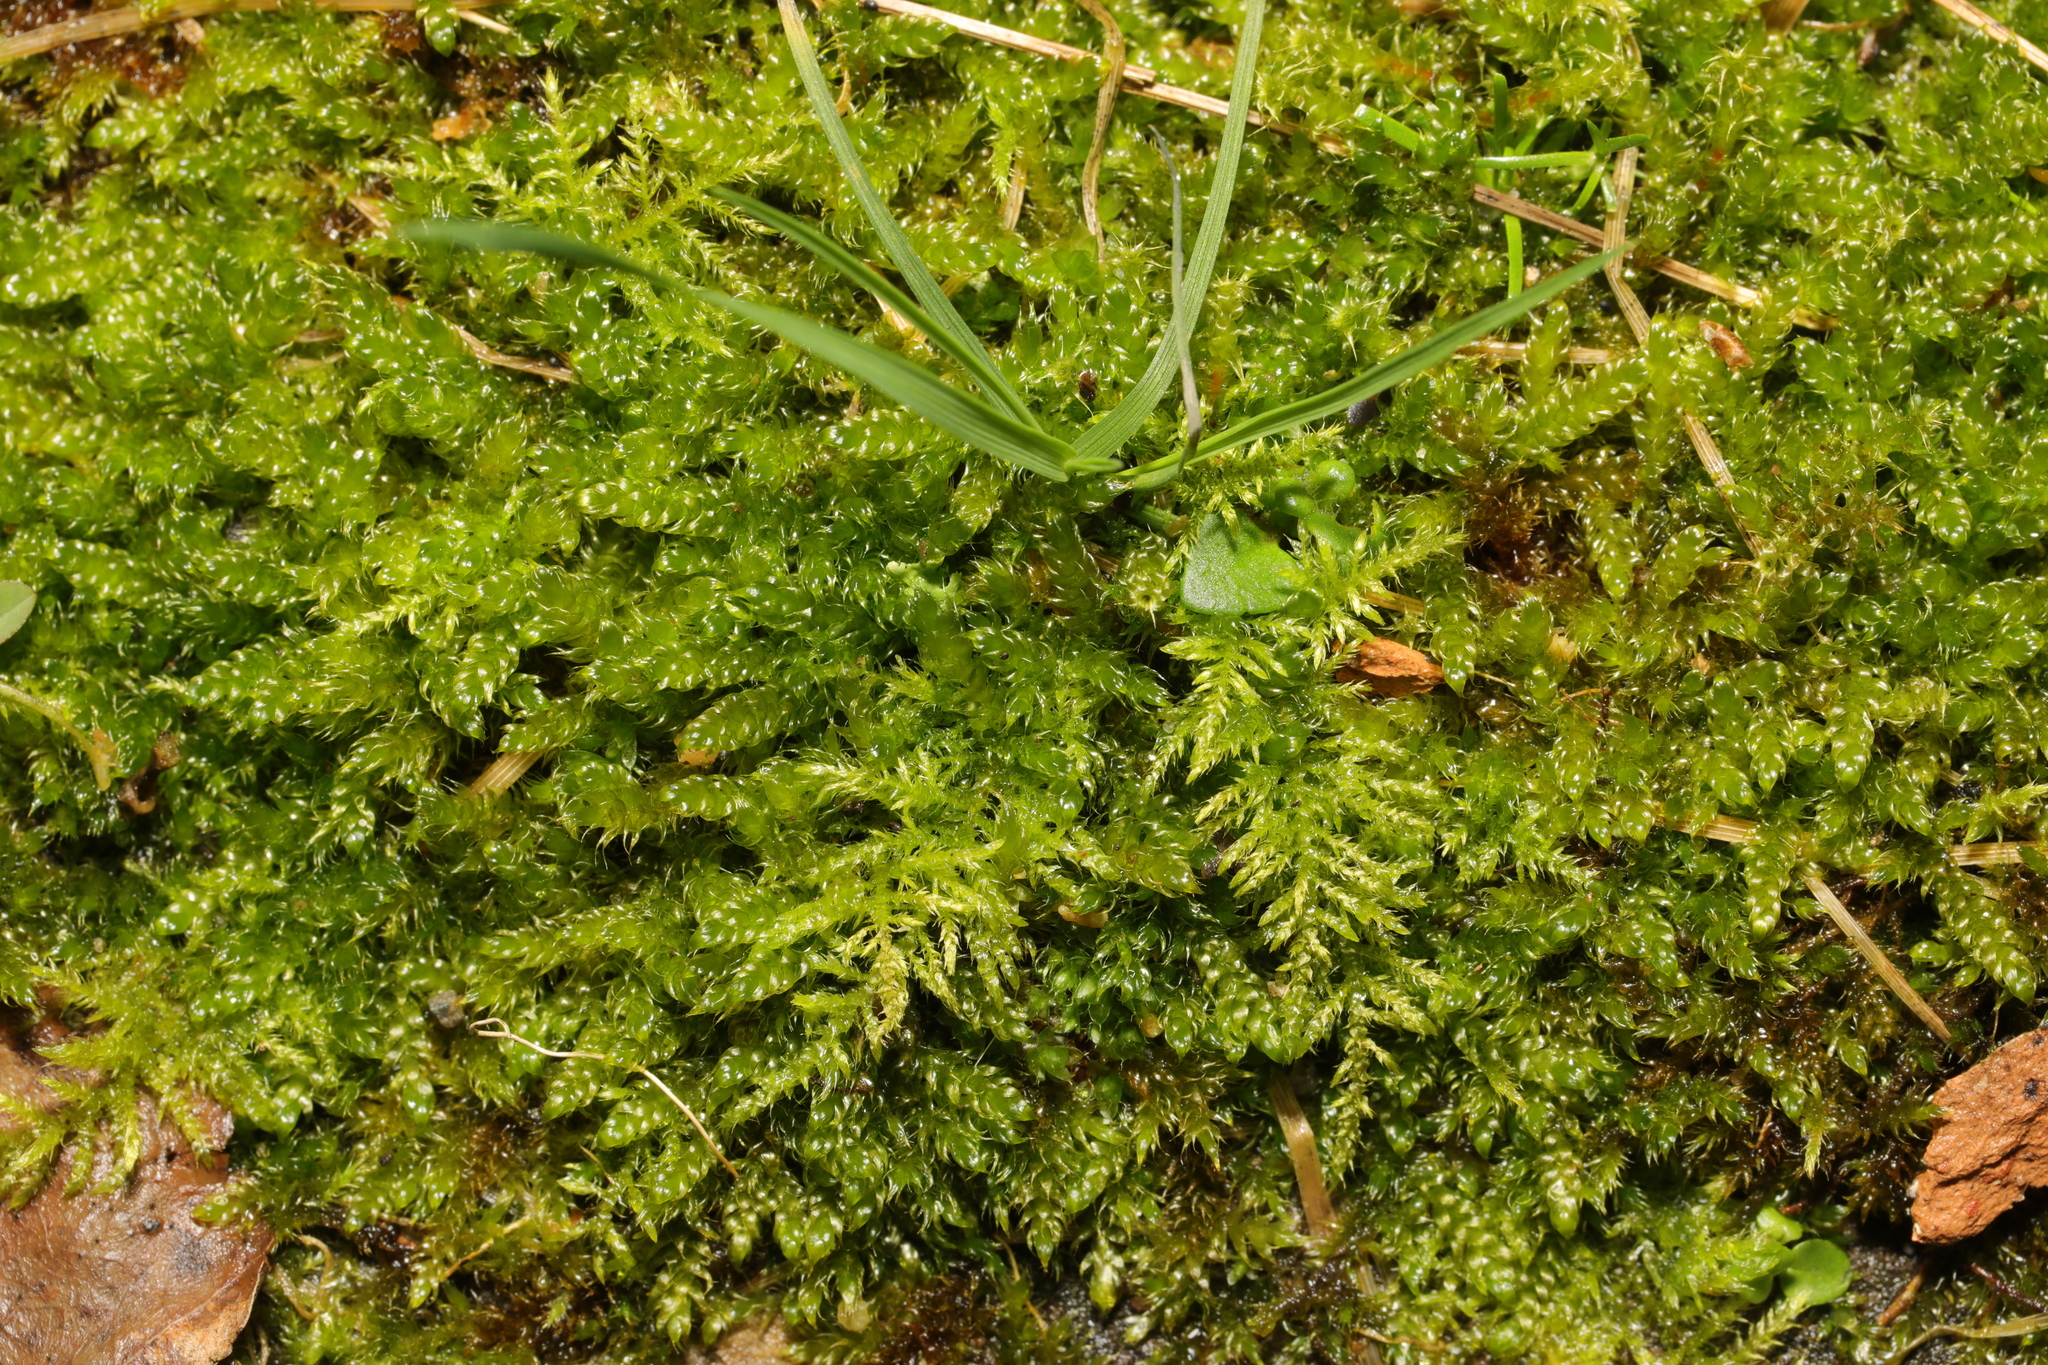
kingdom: Plantae
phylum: Bryophyta
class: Bryopsida
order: Hypnales
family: Hypnaceae
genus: Hypnum
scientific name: Hypnum cupressiforme
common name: Cypress-leaved plait-moss
